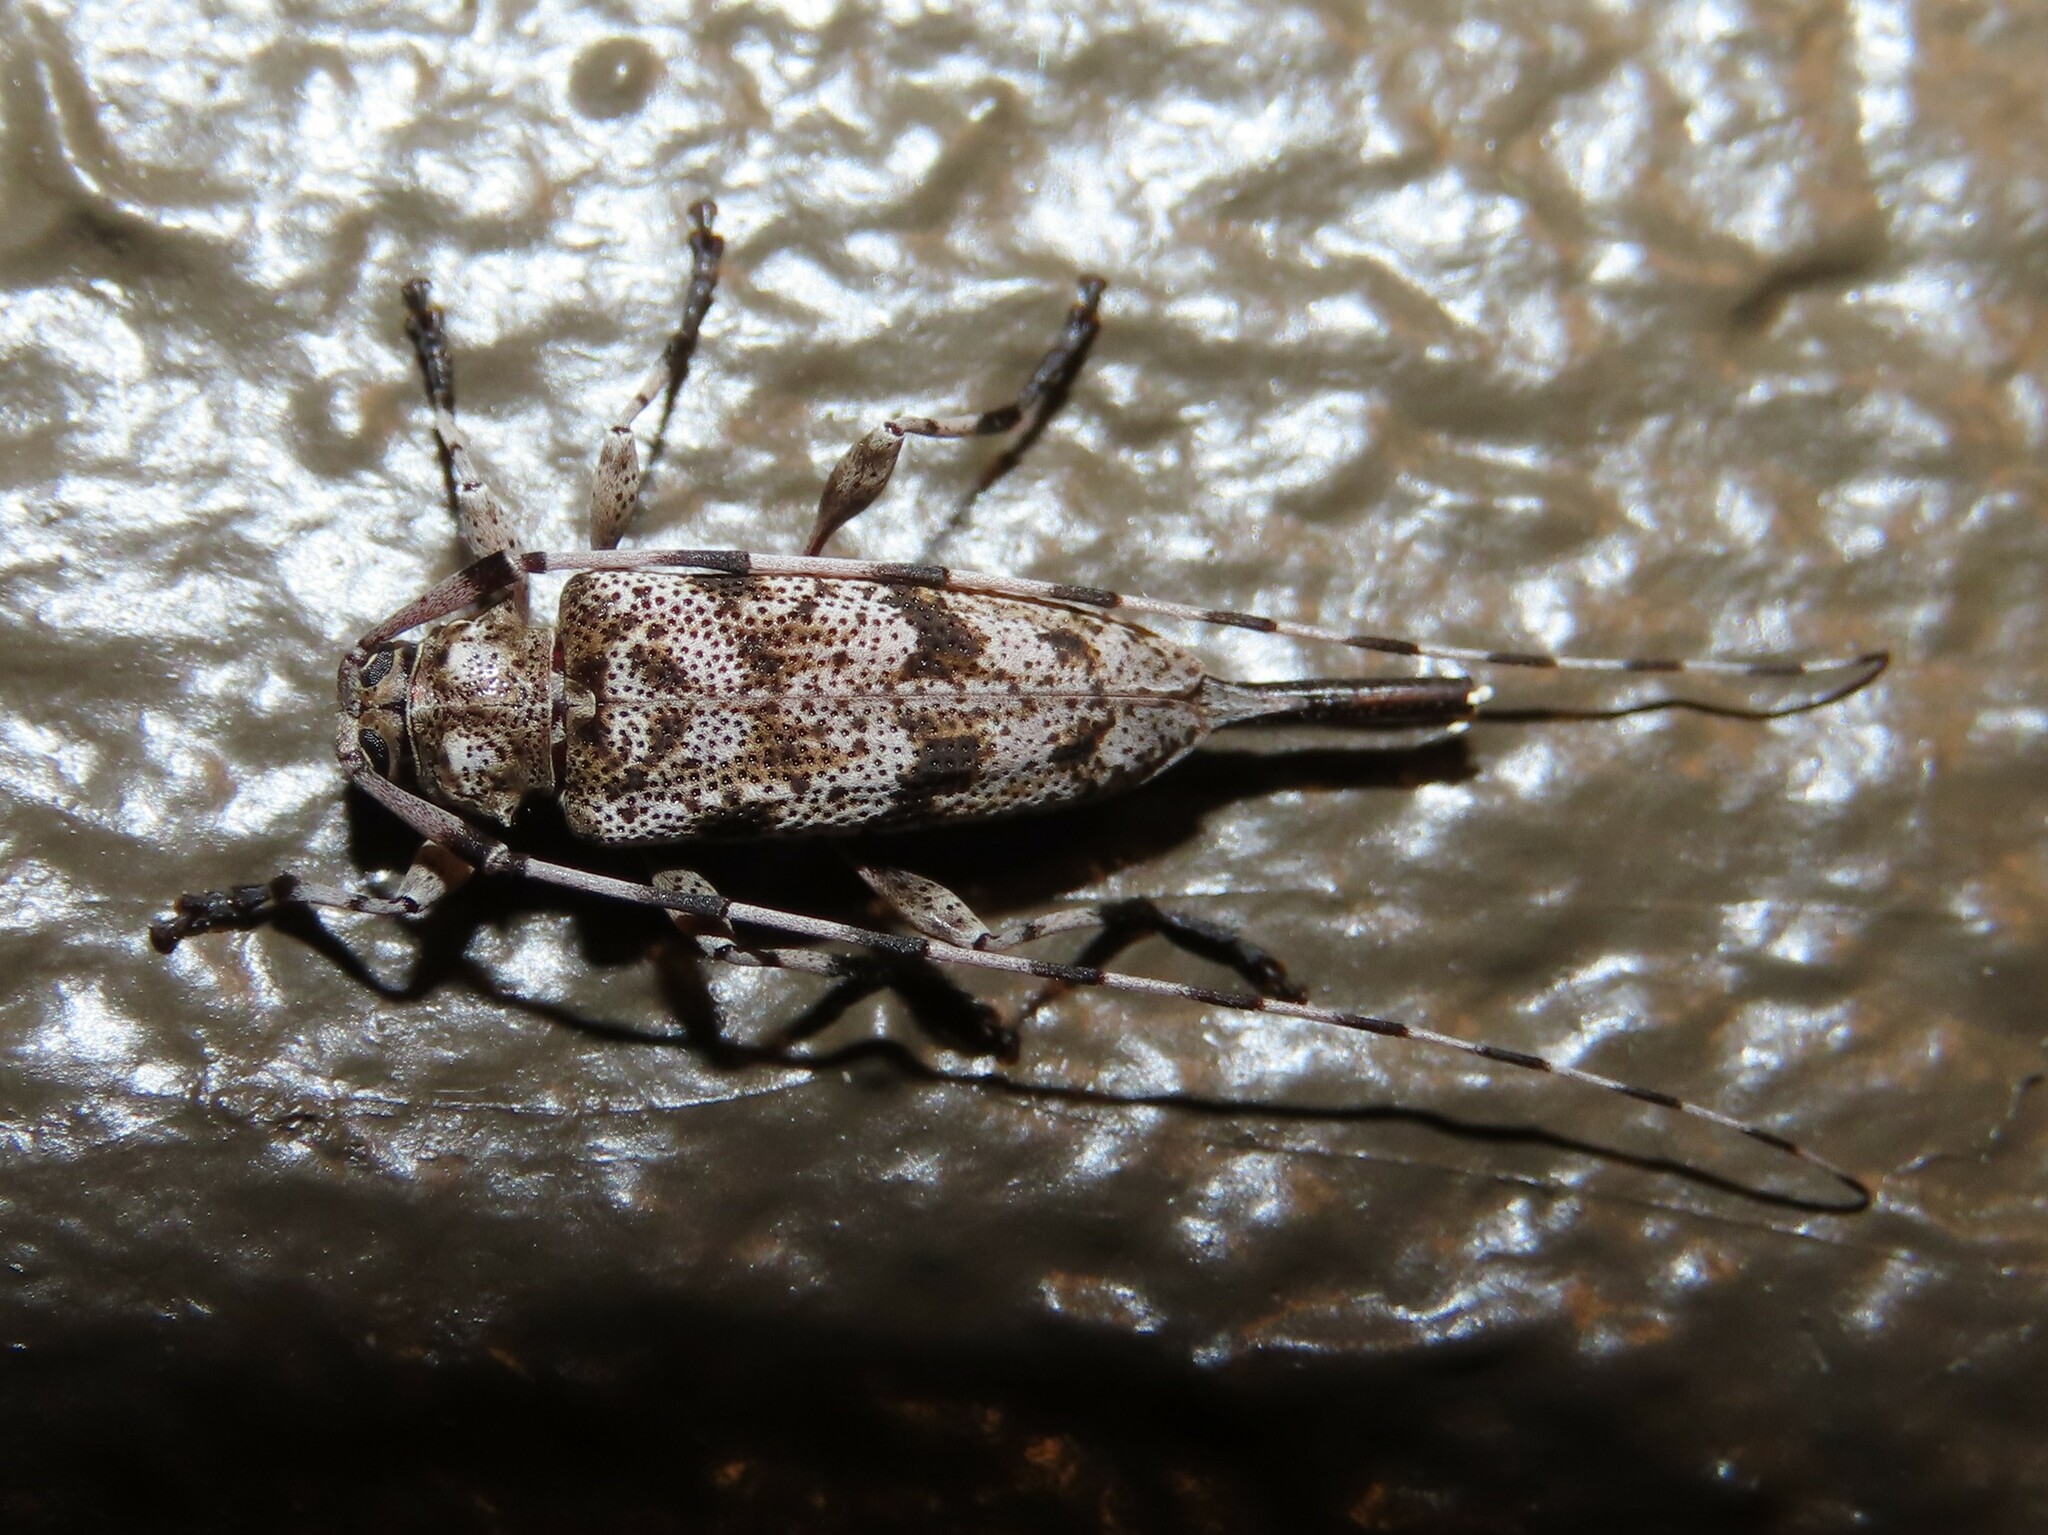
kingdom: Animalia
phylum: Arthropoda
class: Insecta
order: Coleoptera
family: Cerambycidae
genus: Acanthocinus
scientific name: Acanthocinus obsoletus
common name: Roundheaded borer
